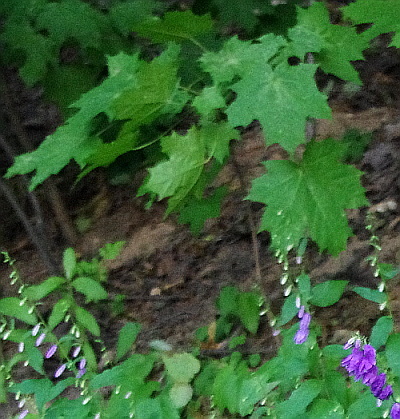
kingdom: Plantae
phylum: Tracheophyta
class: Magnoliopsida
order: Sapindales
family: Sapindaceae
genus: Acer
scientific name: Acer platanoides
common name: Norway maple
